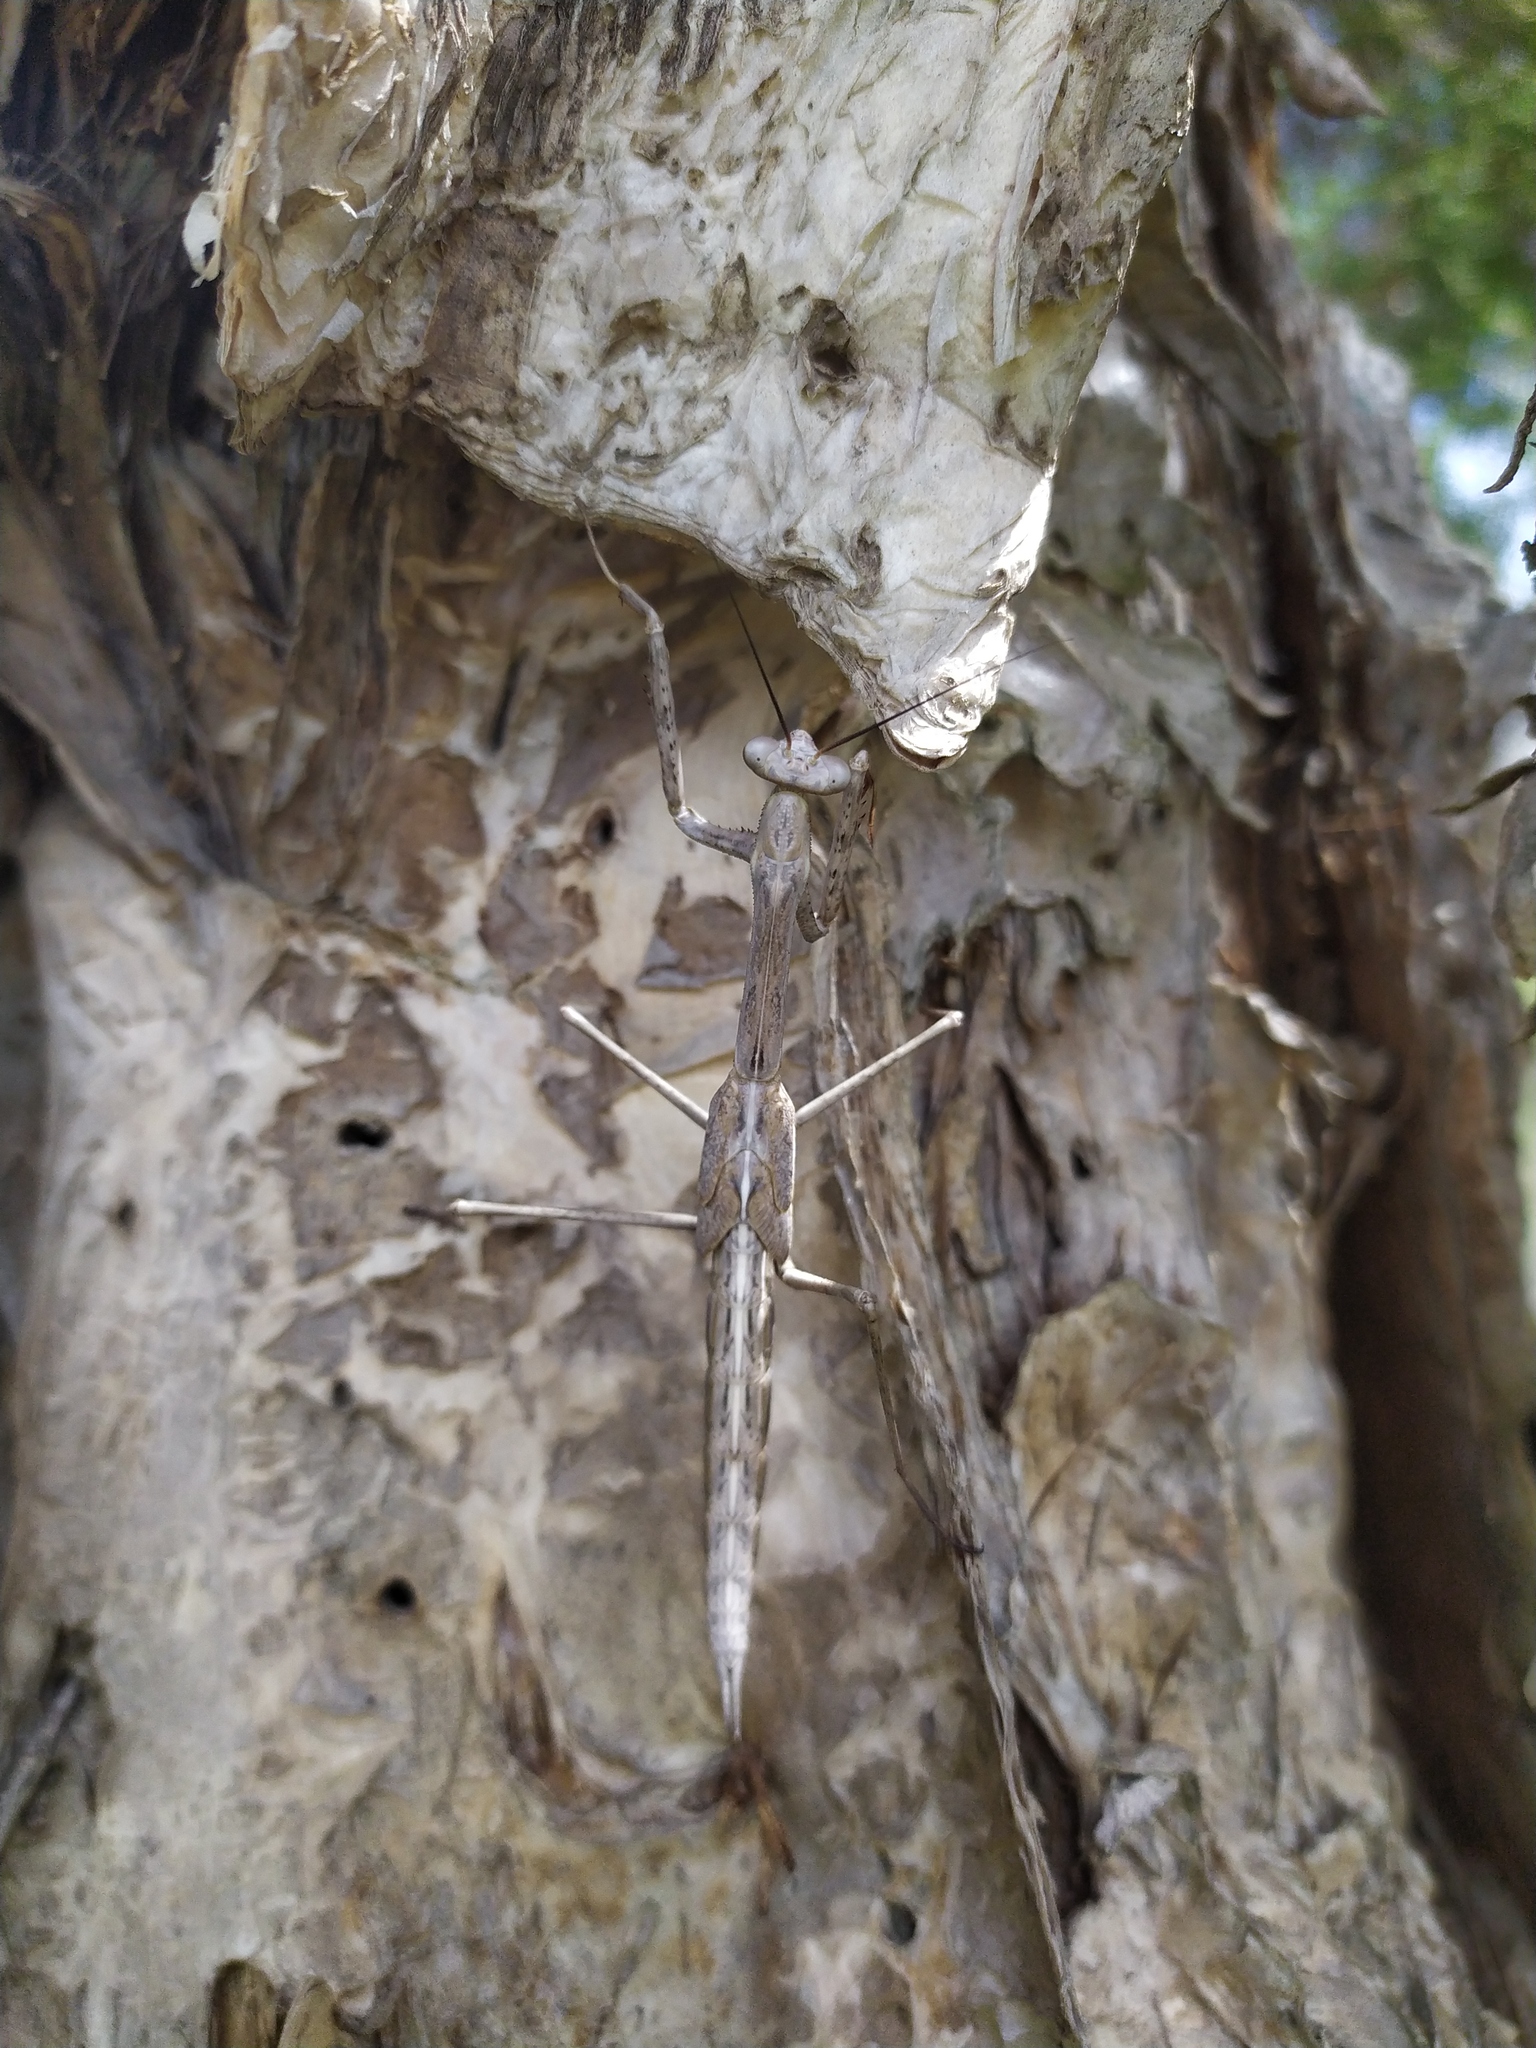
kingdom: Animalia
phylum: Arthropoda
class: Insecta
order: Mantodea
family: Mantidae
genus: Archimantis
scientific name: Archimantis sobrina
